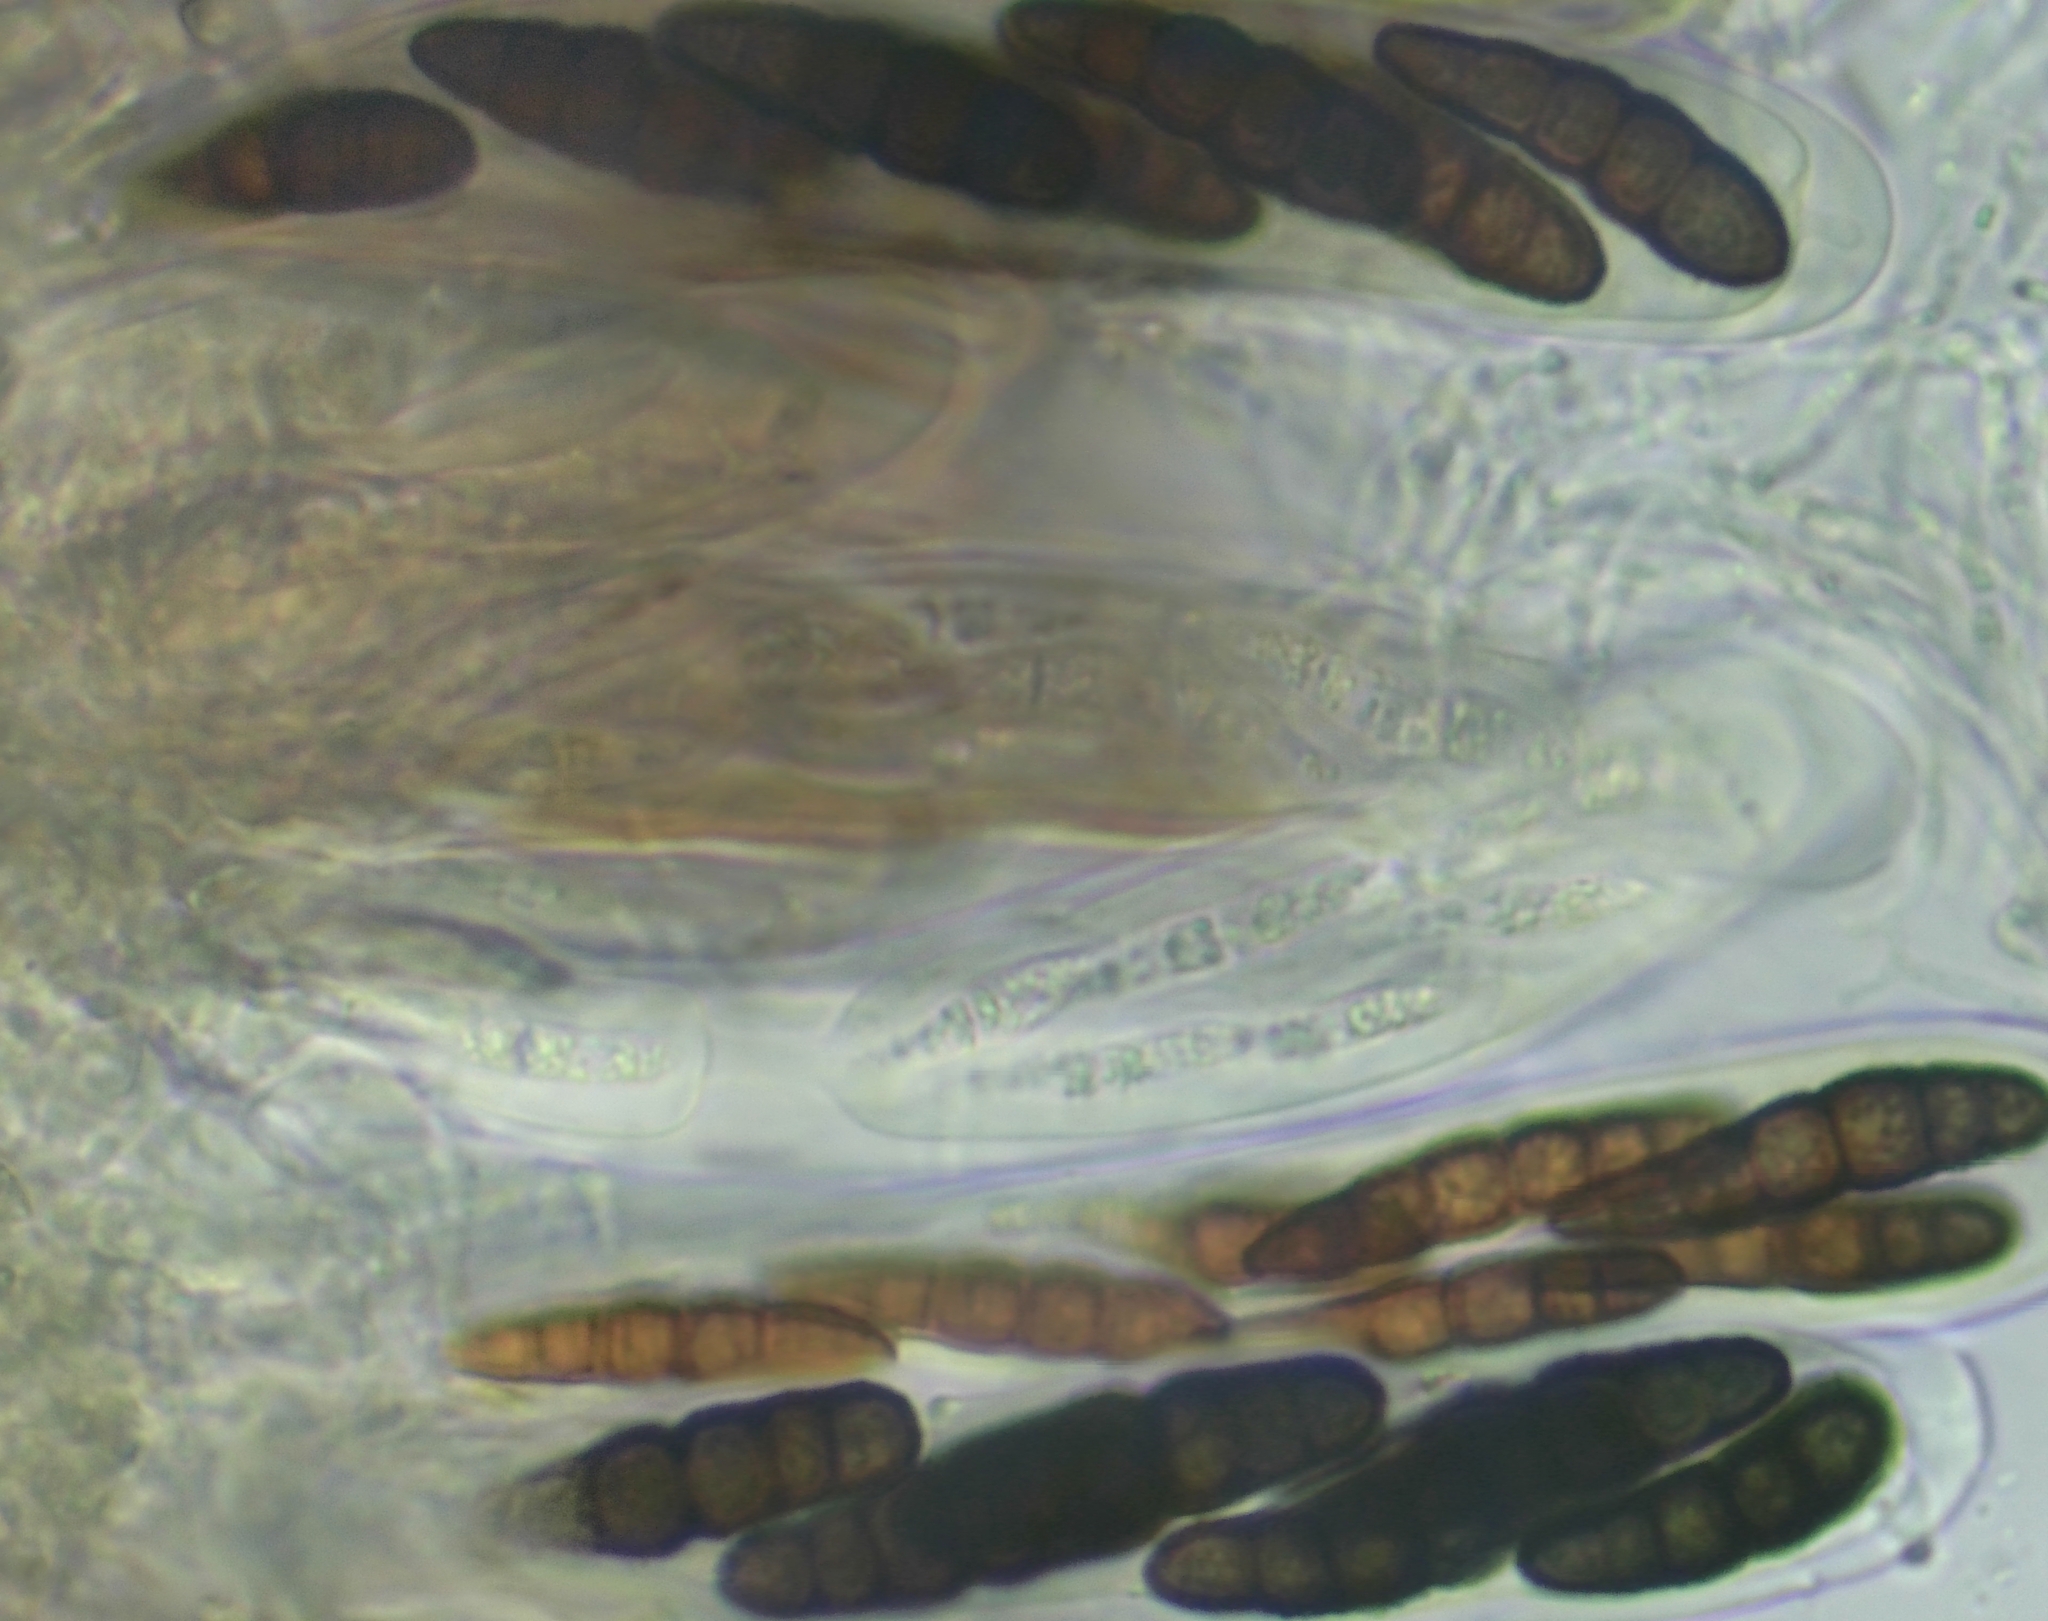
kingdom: Fungi
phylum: Ascomycota
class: Dothideomycetes
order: Pleosporales
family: Macrodiplodiopsidaceae
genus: Macrodiplodiopsis
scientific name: Macrodiplodiopsis desmazieri
